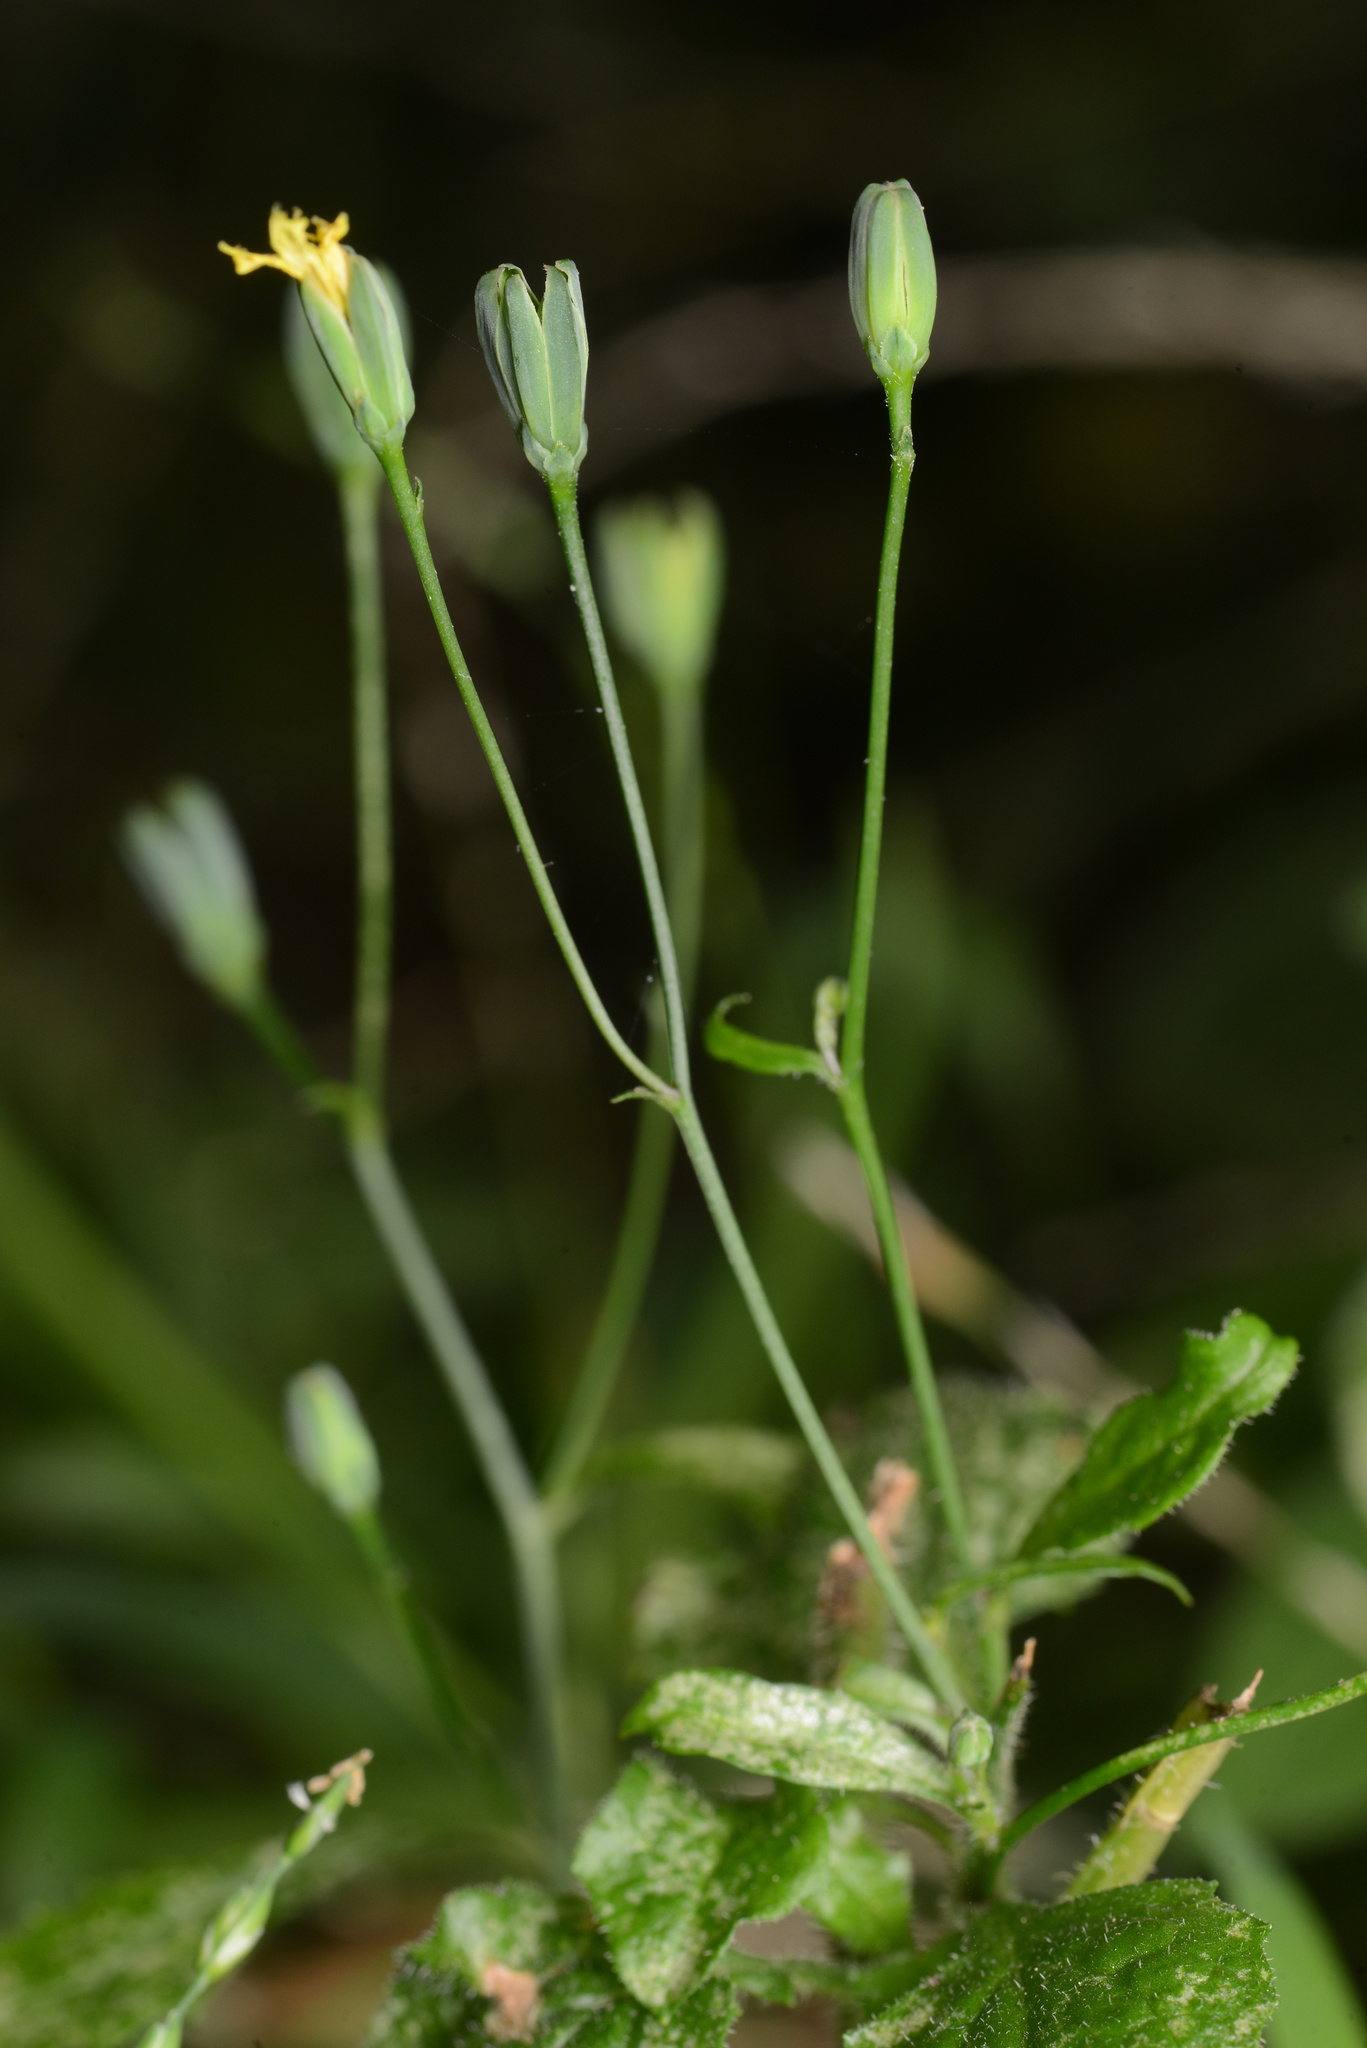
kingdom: Plantae
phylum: Tracheophyta
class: Magnoliopsida
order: Asterales
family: Asteraceae
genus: Lapsana
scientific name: Lapsana communis
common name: Nipplewort
